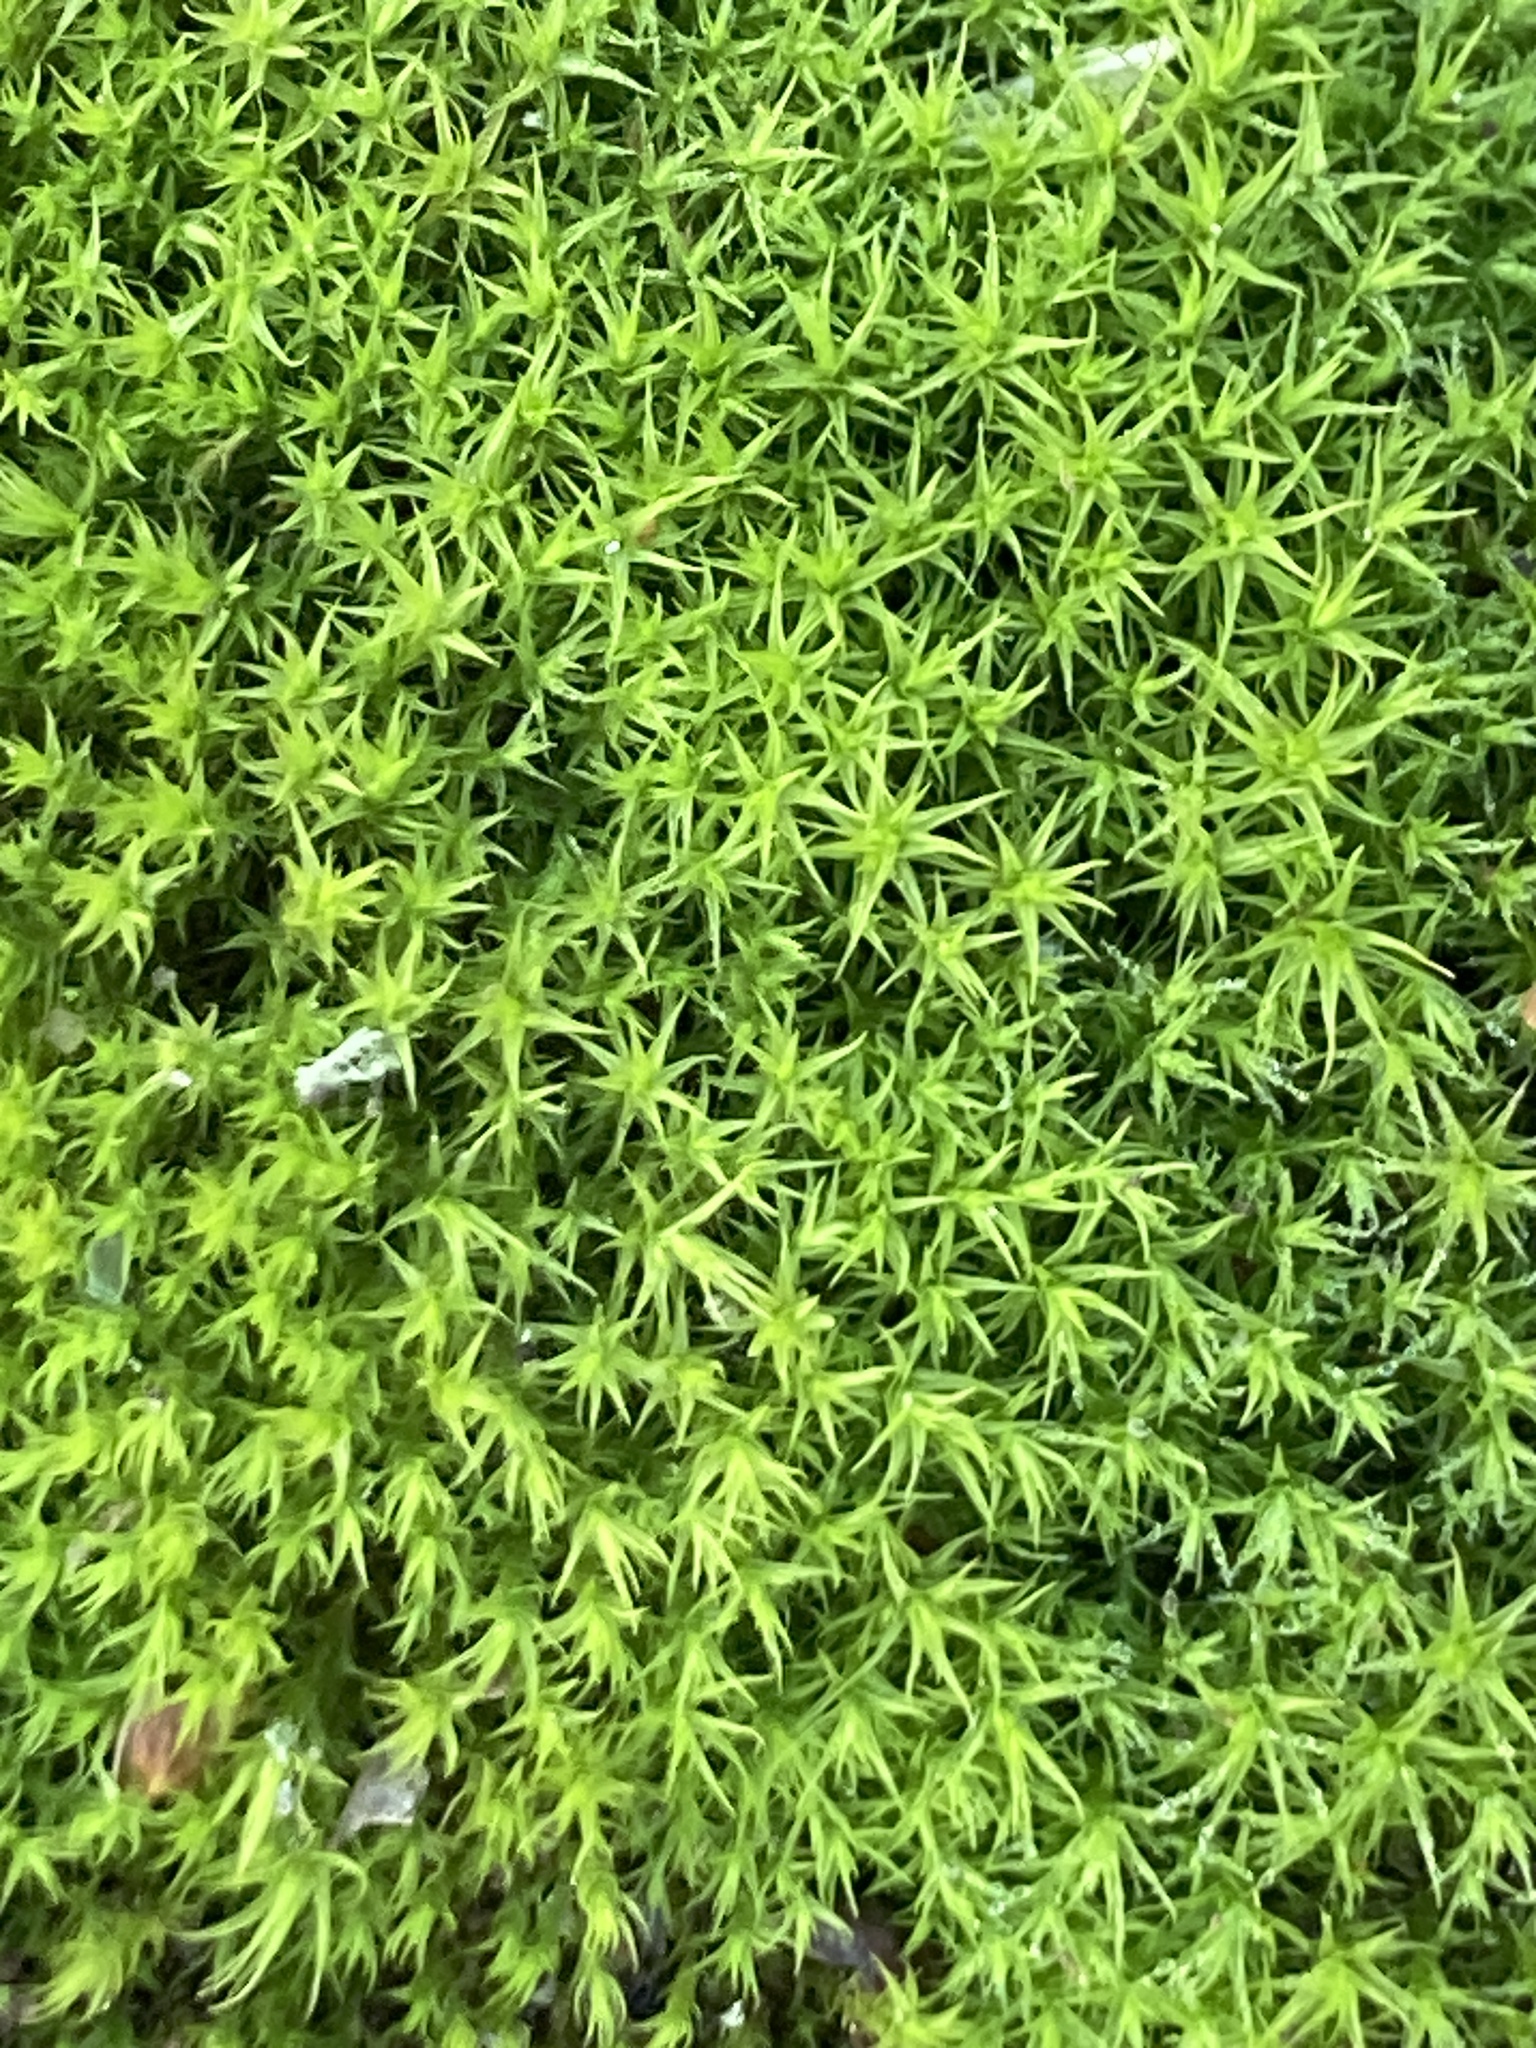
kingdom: Plantae
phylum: Bryophyta
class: Bryopsida
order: Pottiales
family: Pottiaceae
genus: Pseudocrossidium
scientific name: Pseudocrossidium hornschuchianum
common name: Hornschuch's beard-moss
